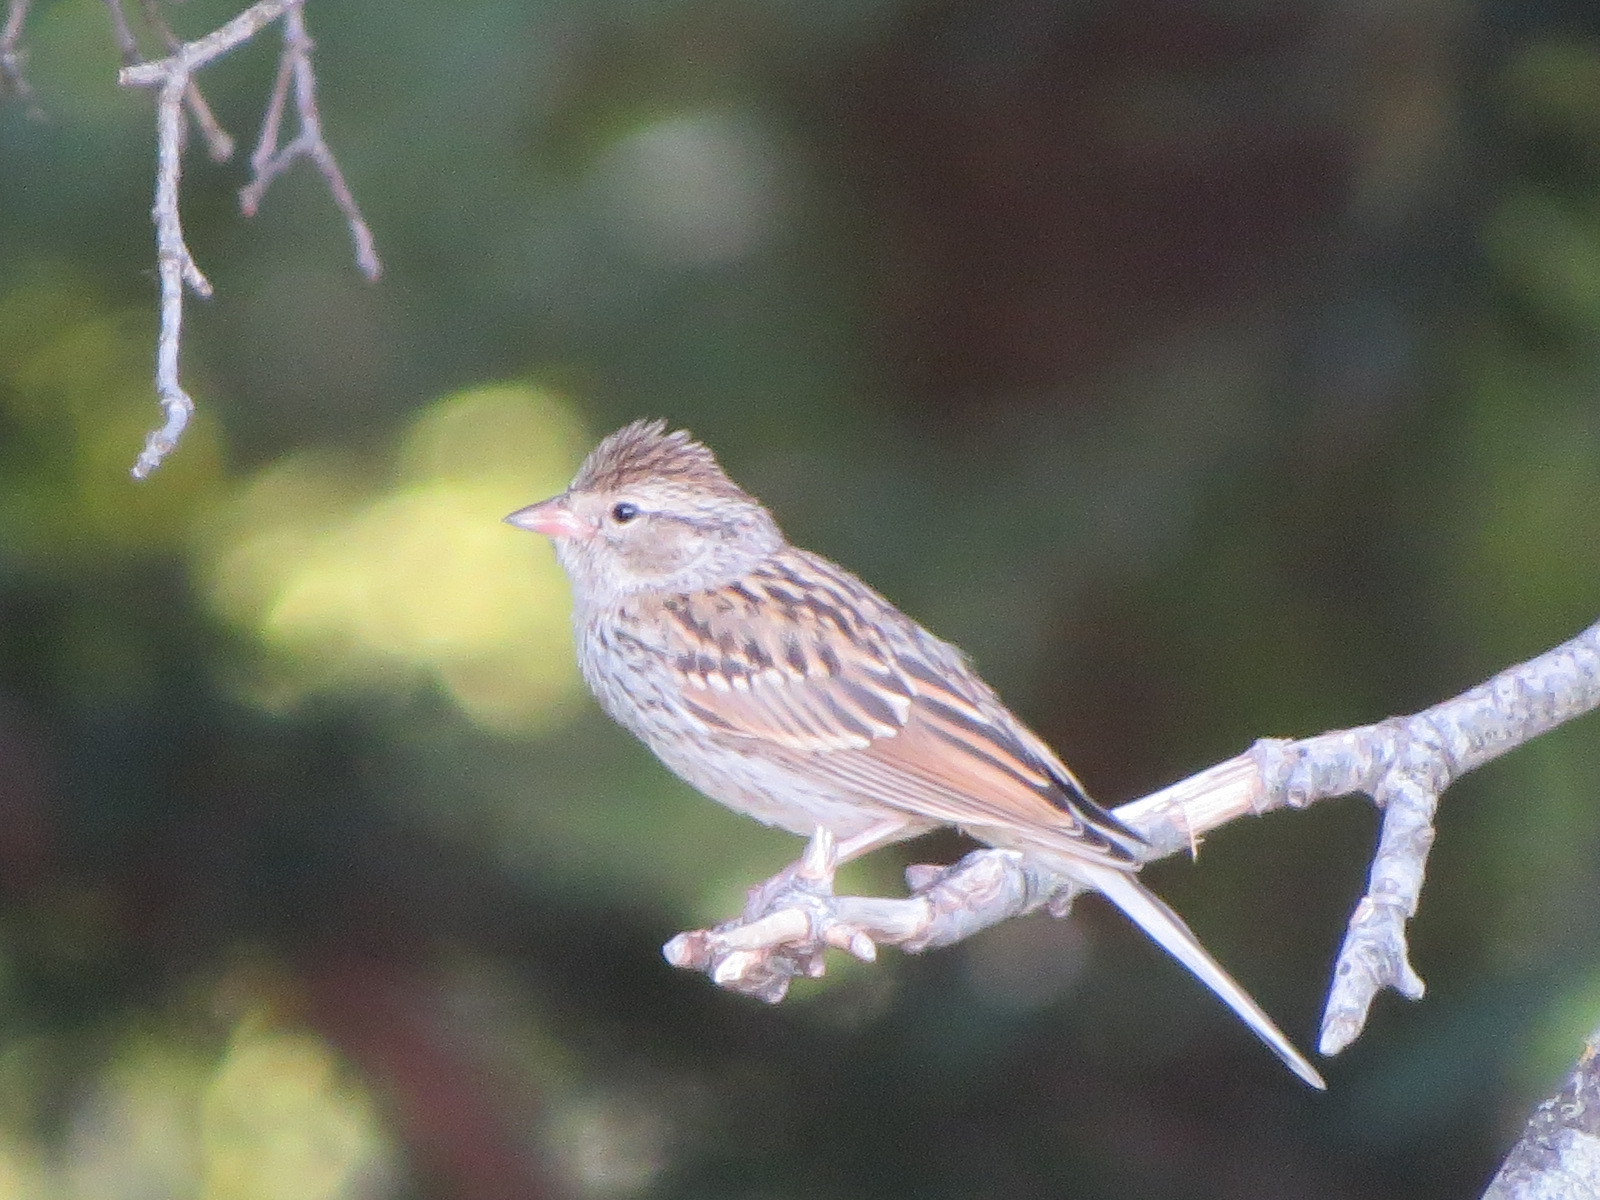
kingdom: Animalia
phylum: Chordata
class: Aves
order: Passeriformes
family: Passerellidae
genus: Spizella
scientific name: Spizella passerina
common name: Chipping sparrow
